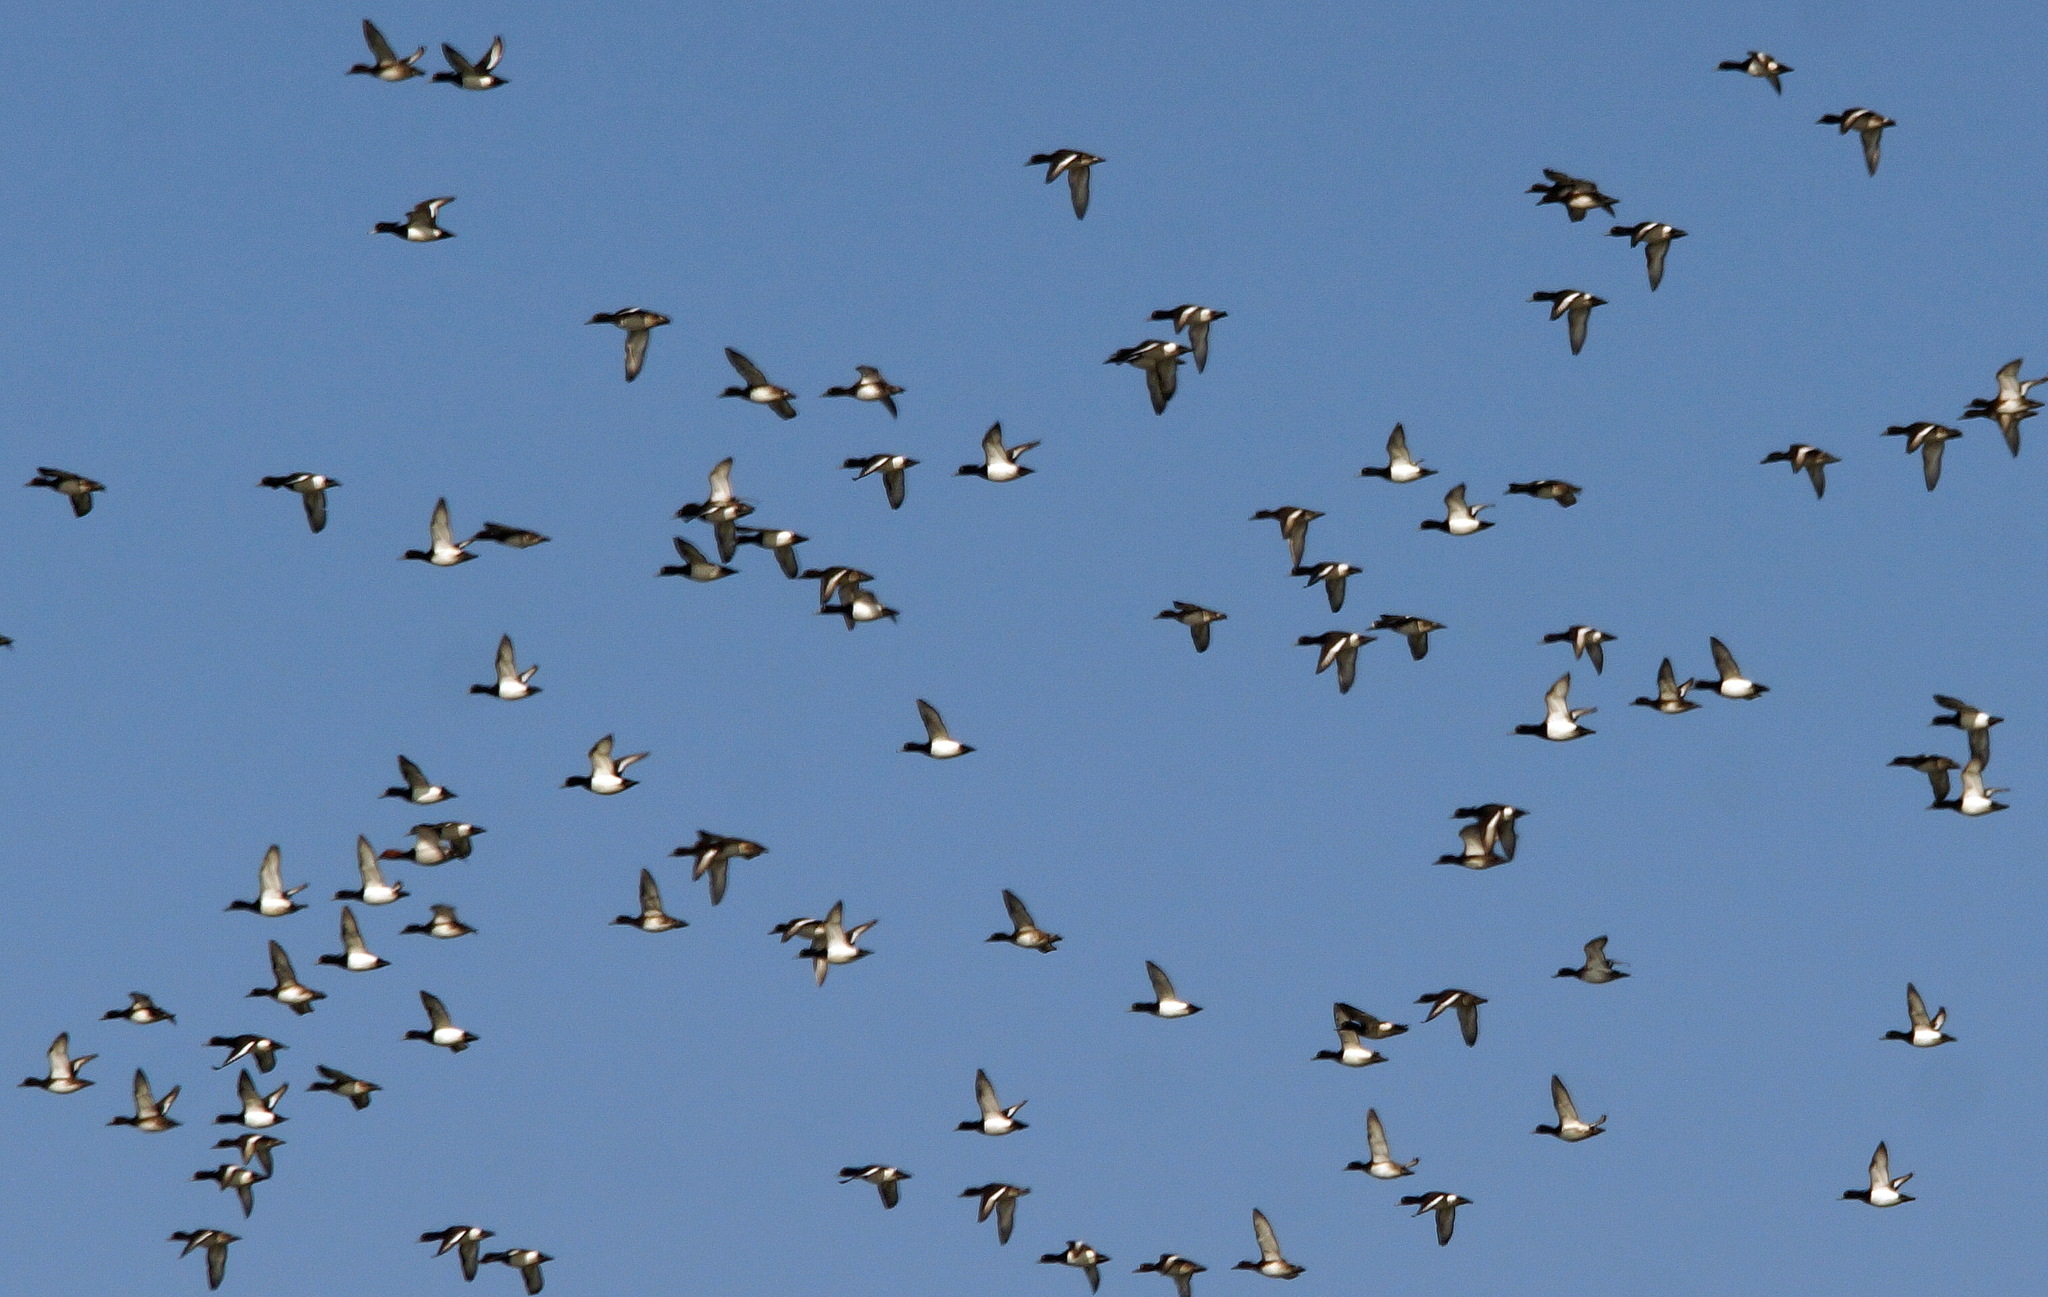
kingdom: Animalia
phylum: Chordata
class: Aves
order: Anseriformes
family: Anatidae
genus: Aythya
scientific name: Aythya fuligula
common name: Tufted duck
